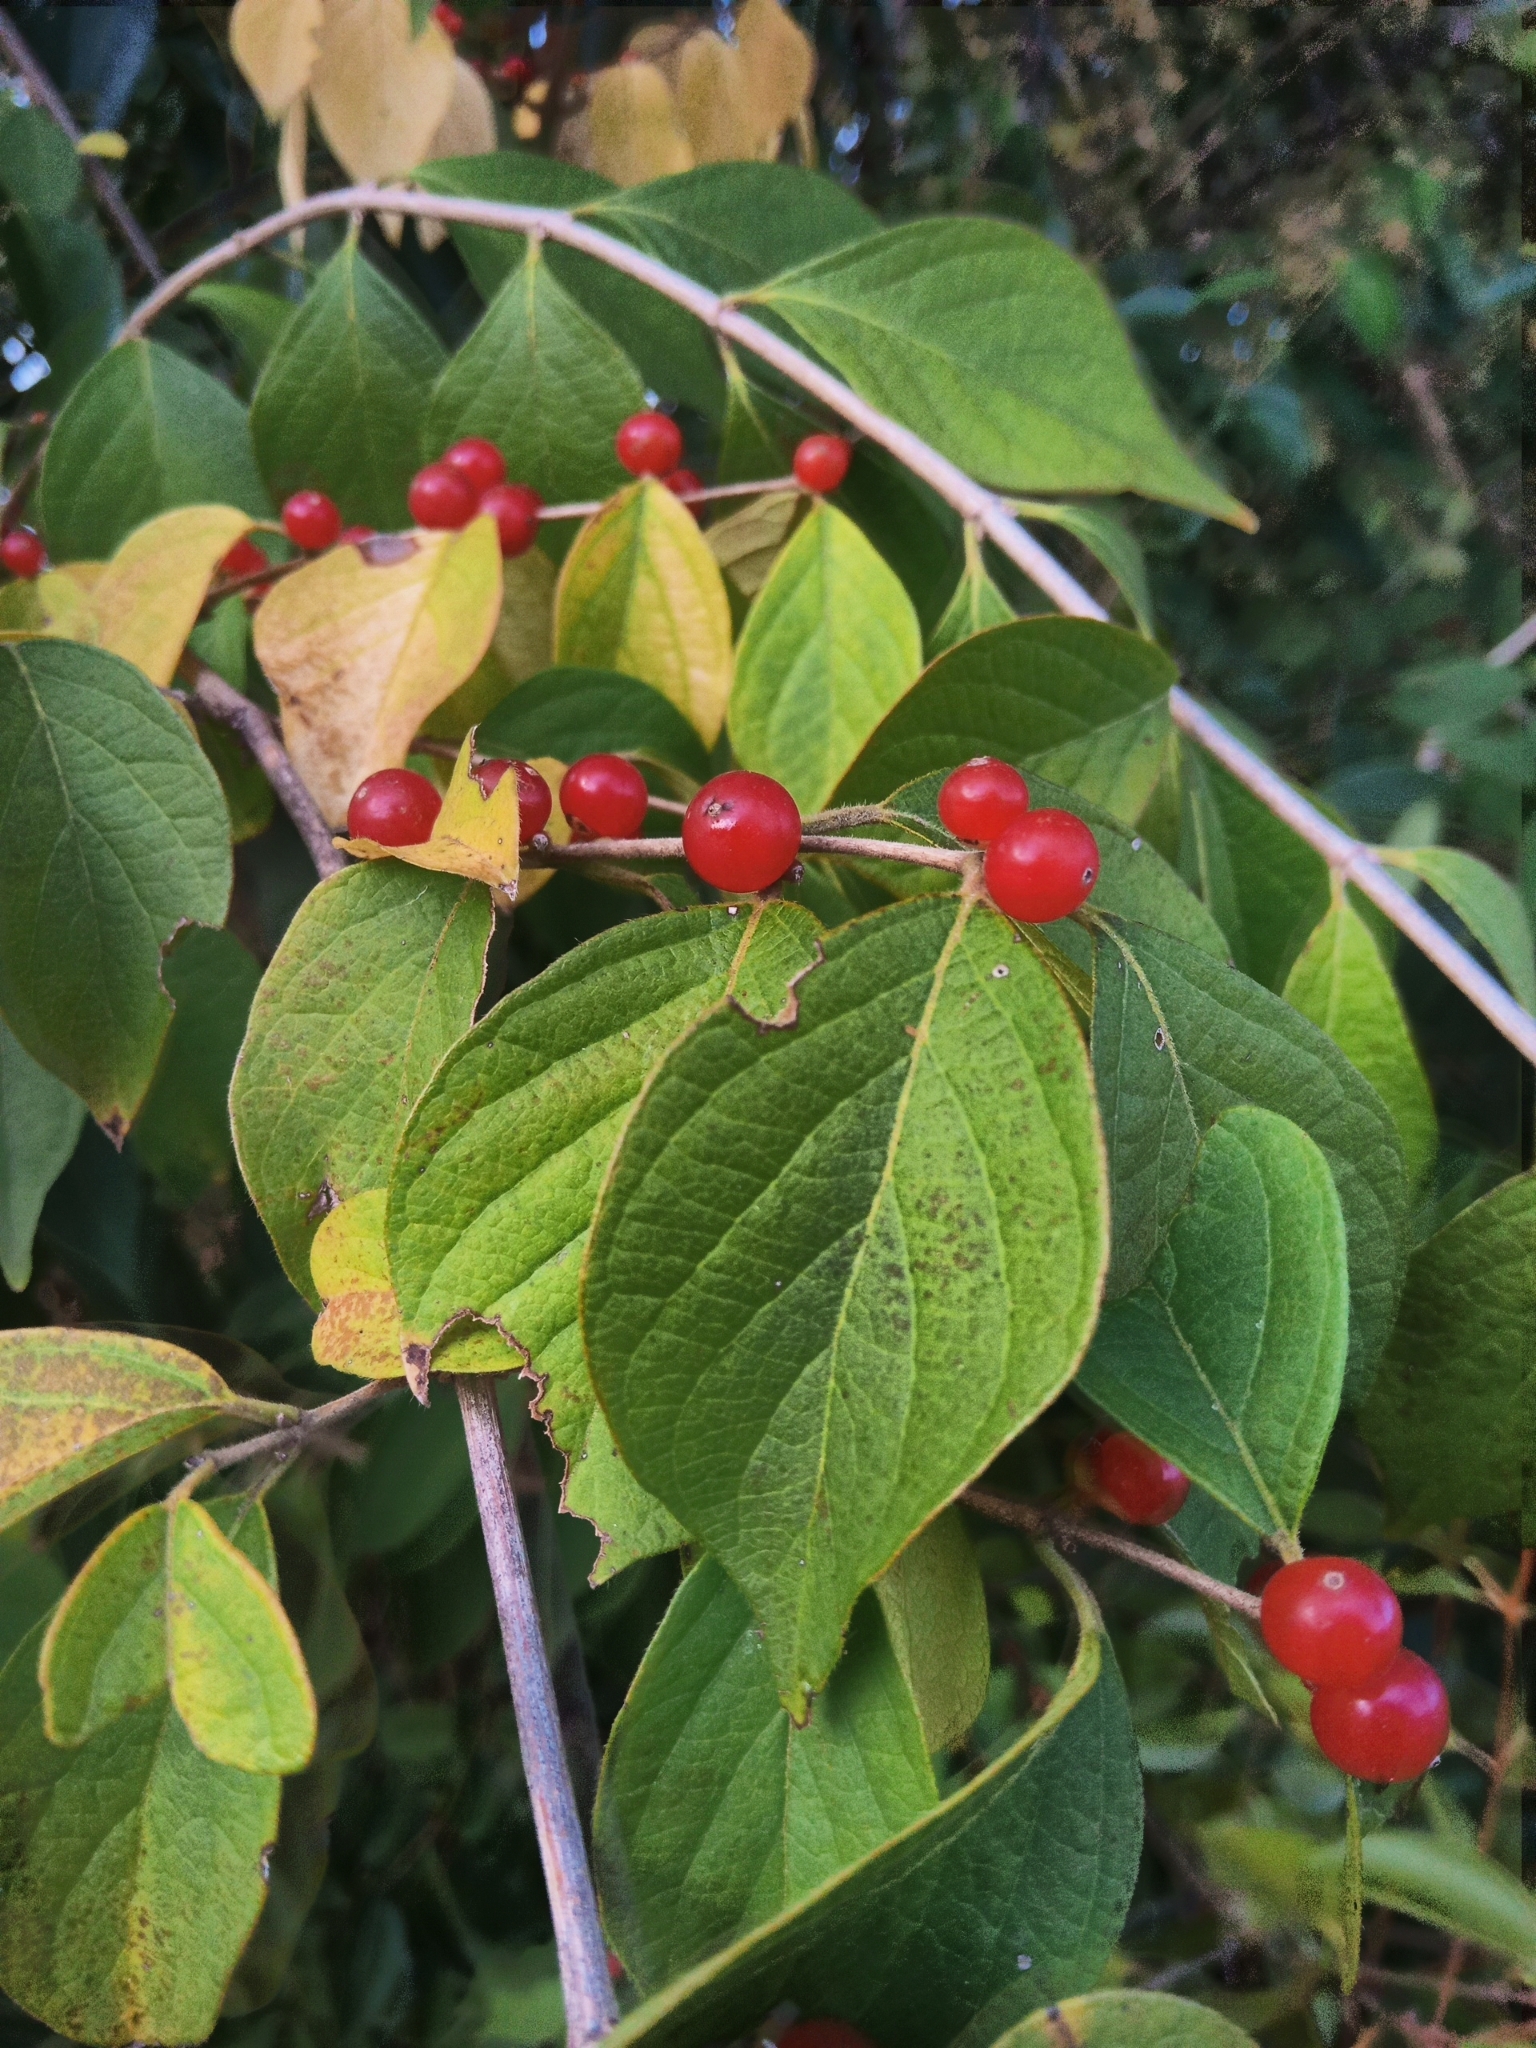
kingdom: Plantae
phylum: Tracheophyta
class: Magnoliopsida
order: Dipsacales
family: Caprifoliaceae
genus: Lonicera
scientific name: Lonicera maackii
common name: Amur honeysuckle
